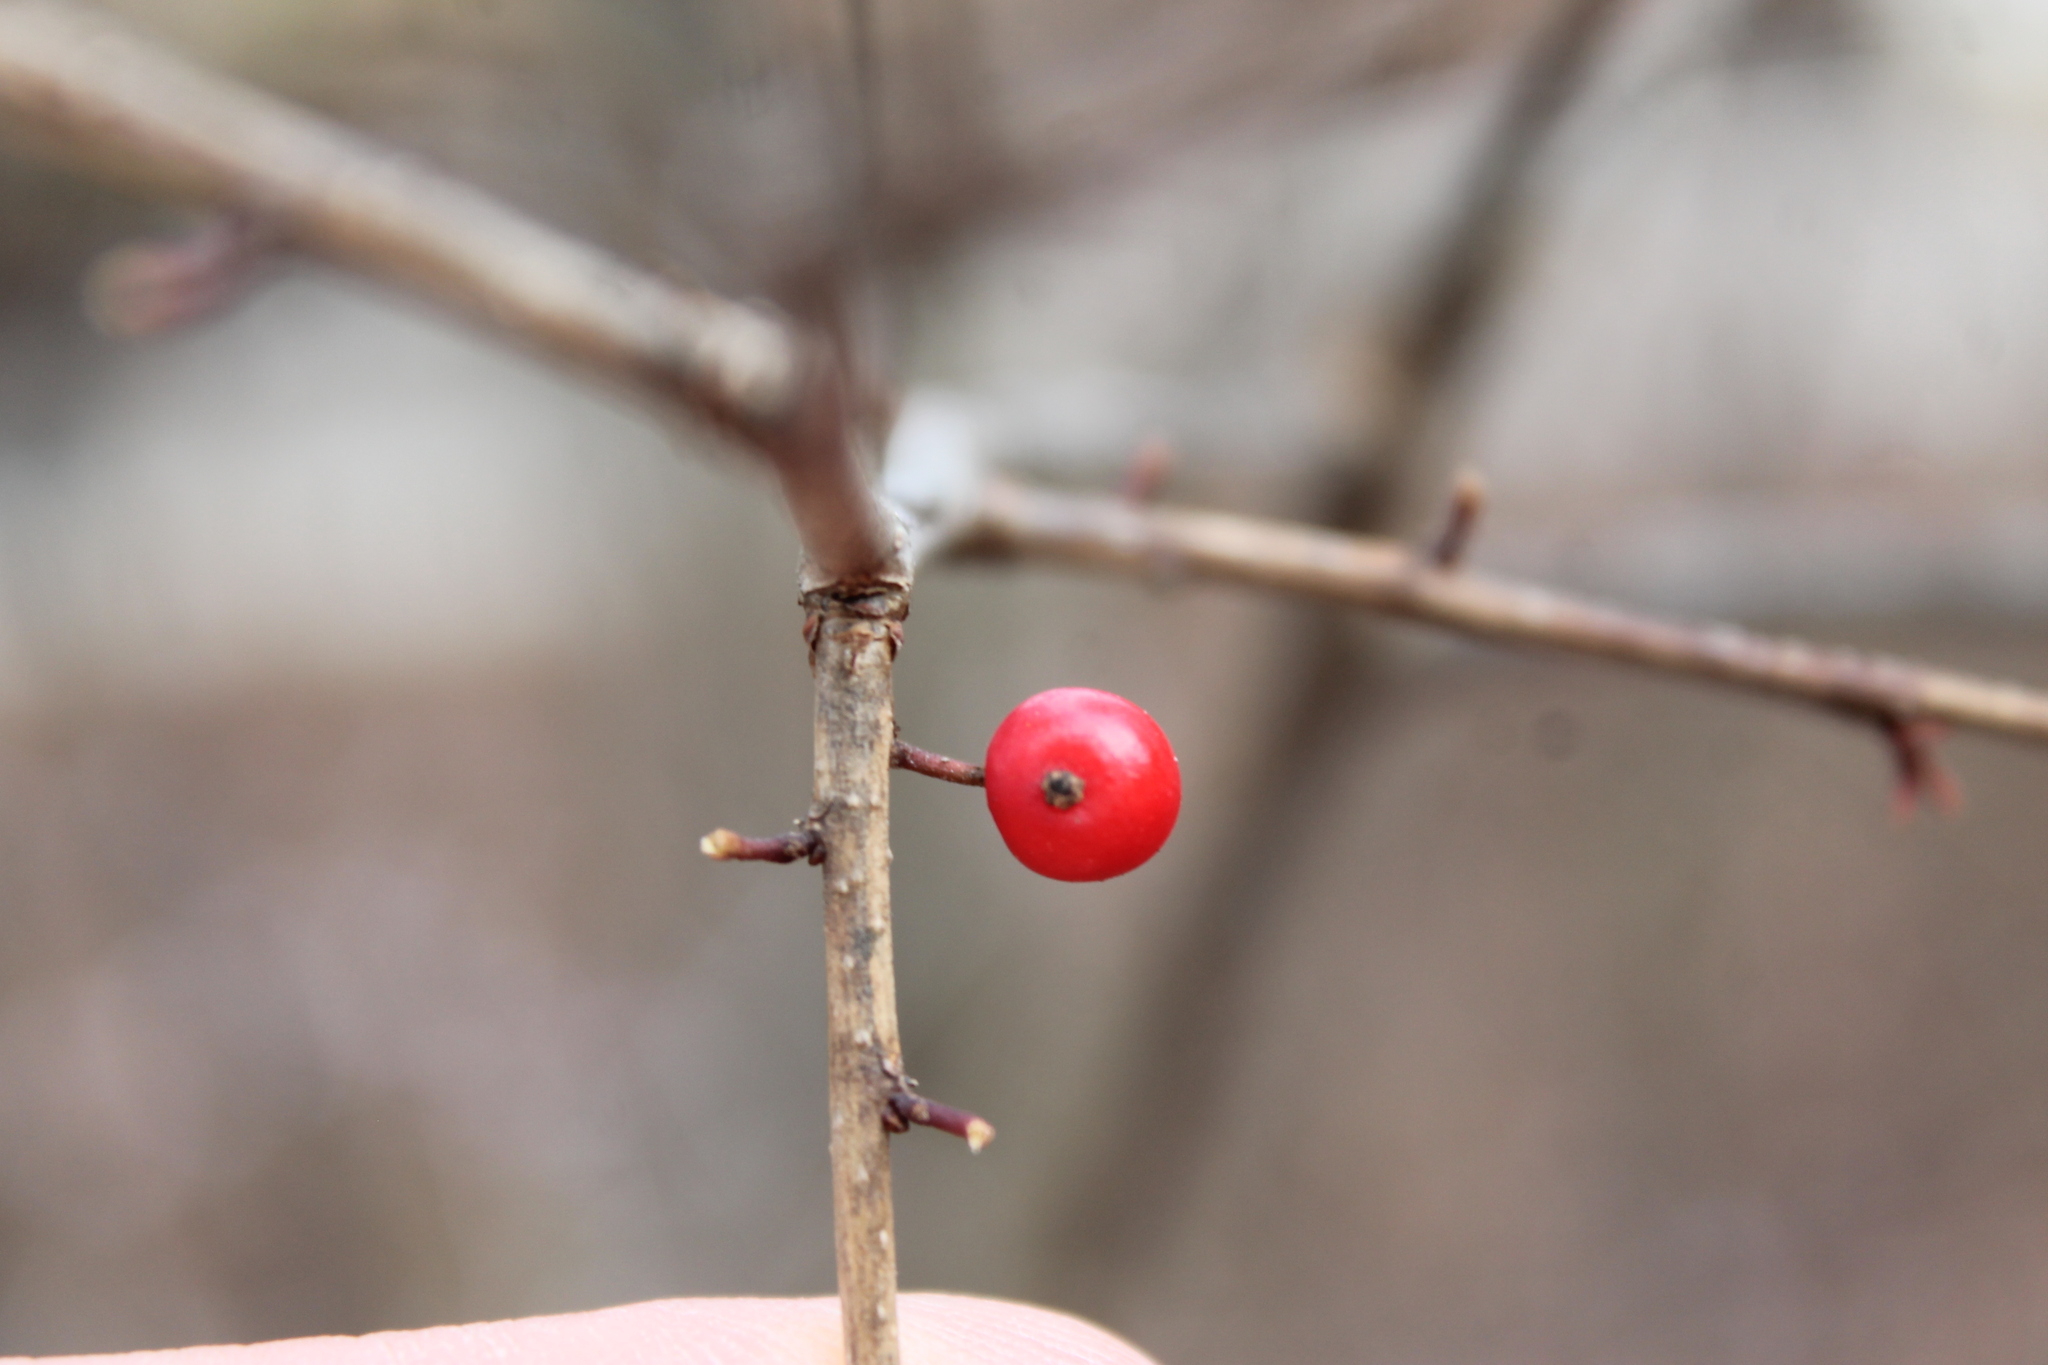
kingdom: Plantae
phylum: Tracheophyta
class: Magnoliopsida
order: Aquifoliales
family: Aquifoliaceae
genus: Ilex
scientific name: Ilex verticillata
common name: Virginia winterberry
